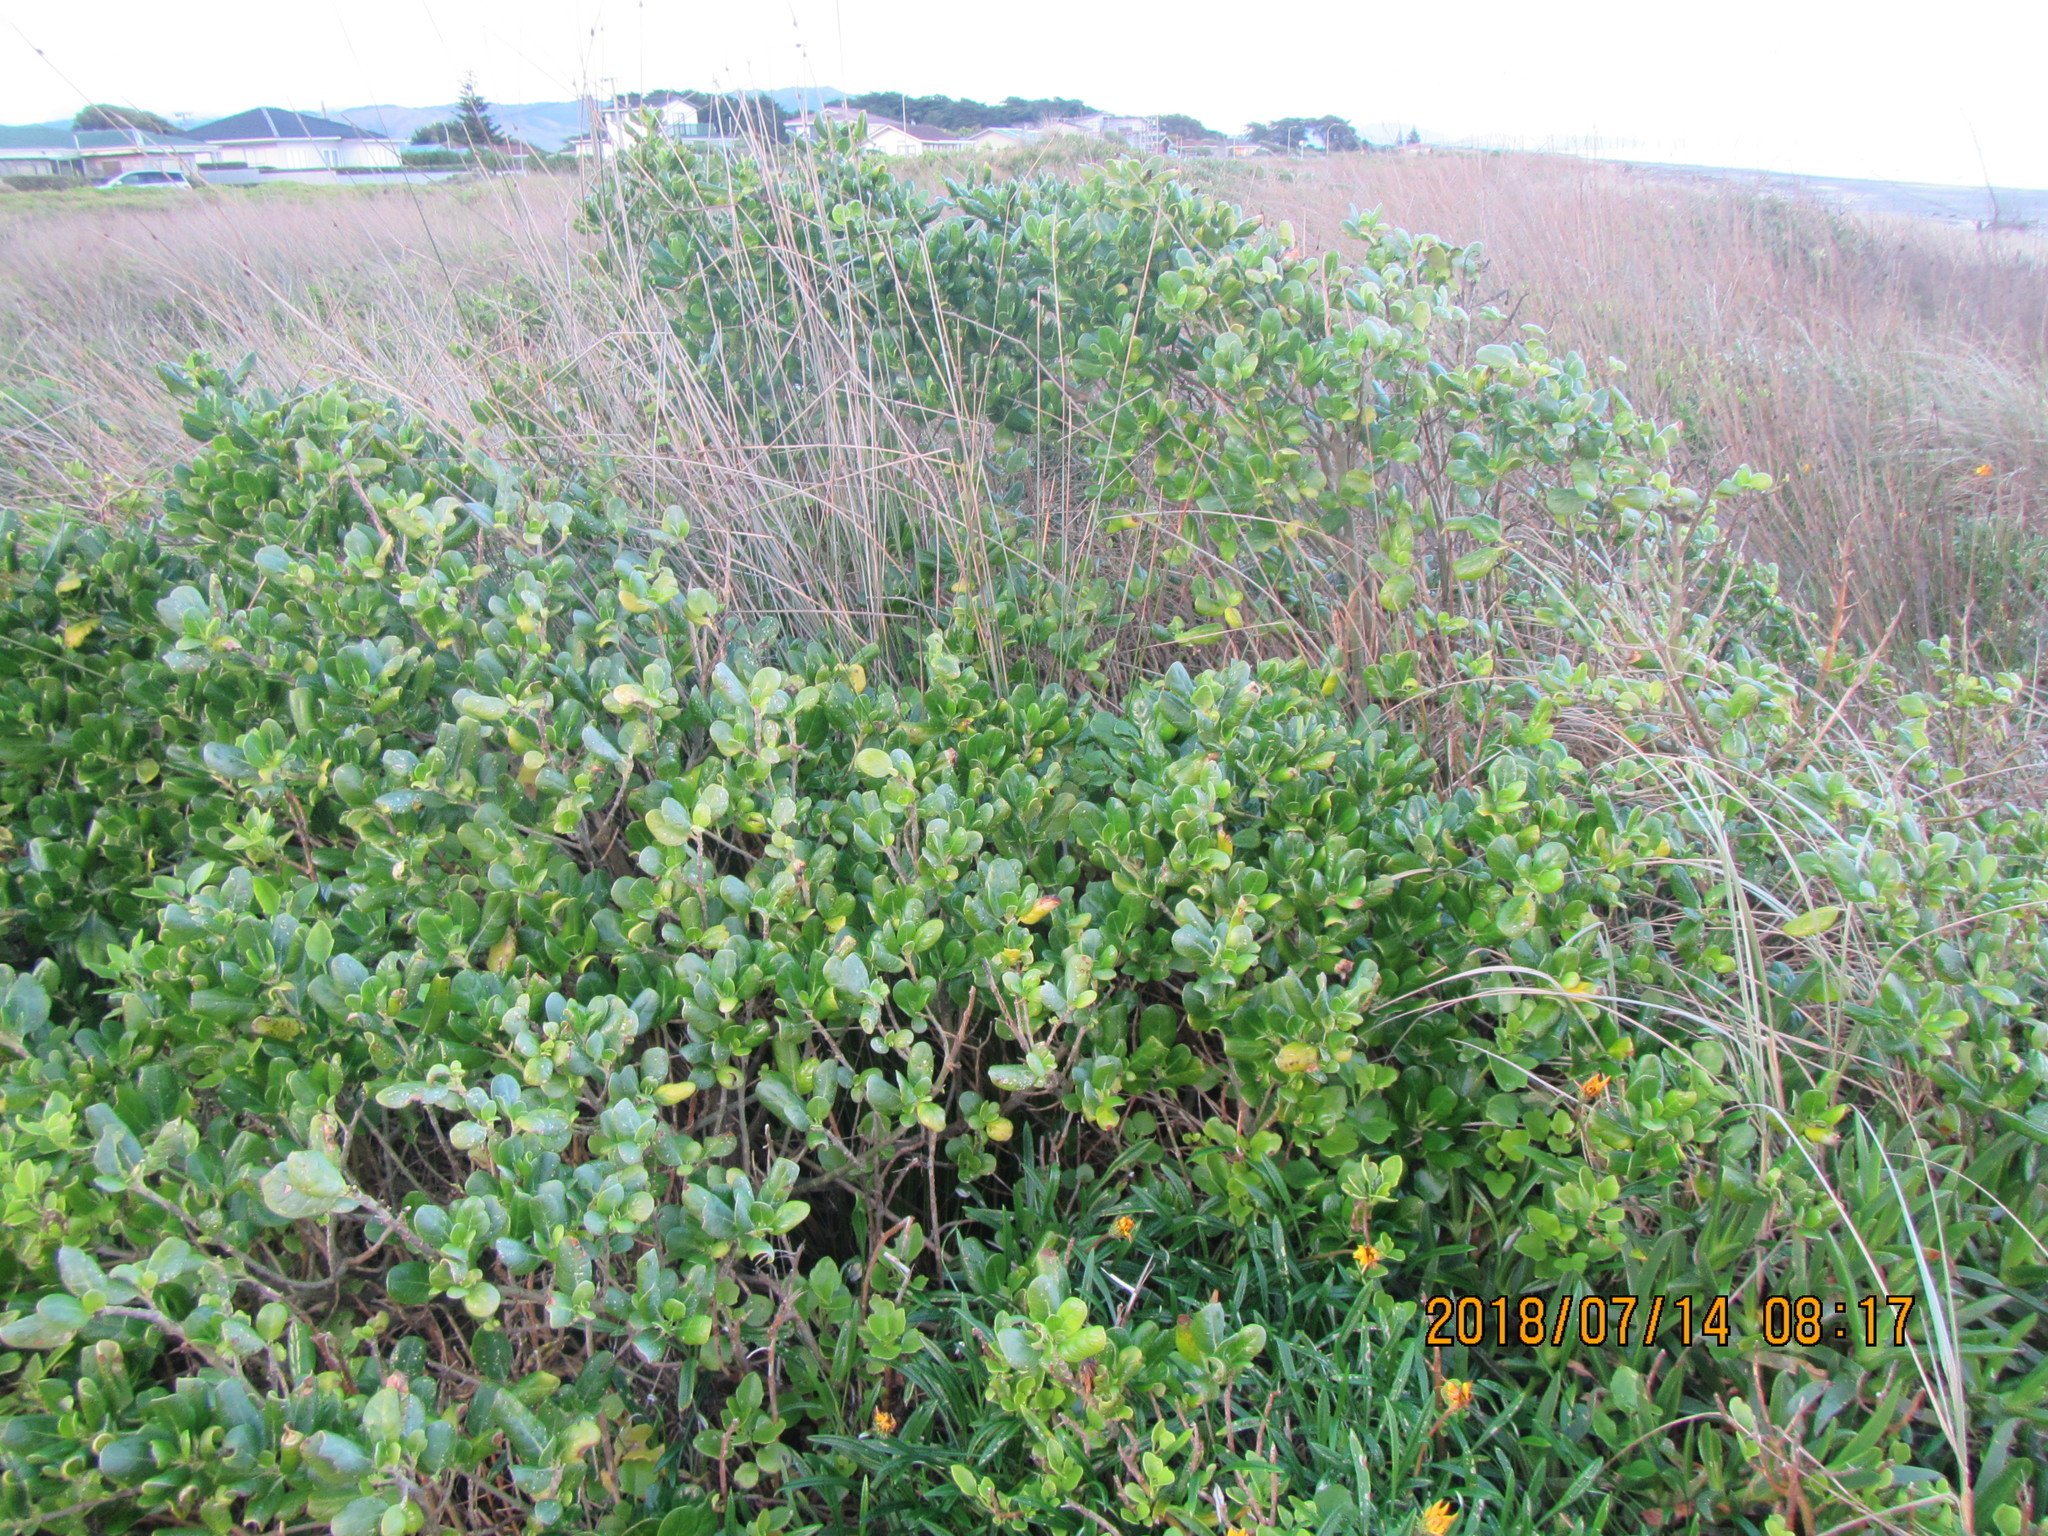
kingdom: Plantae
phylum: Tracheophyta
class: Magnoliopsida
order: Gentianales
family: Rubiaceae
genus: Coprosma
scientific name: Coprosma repens
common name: Tree bedstraw
